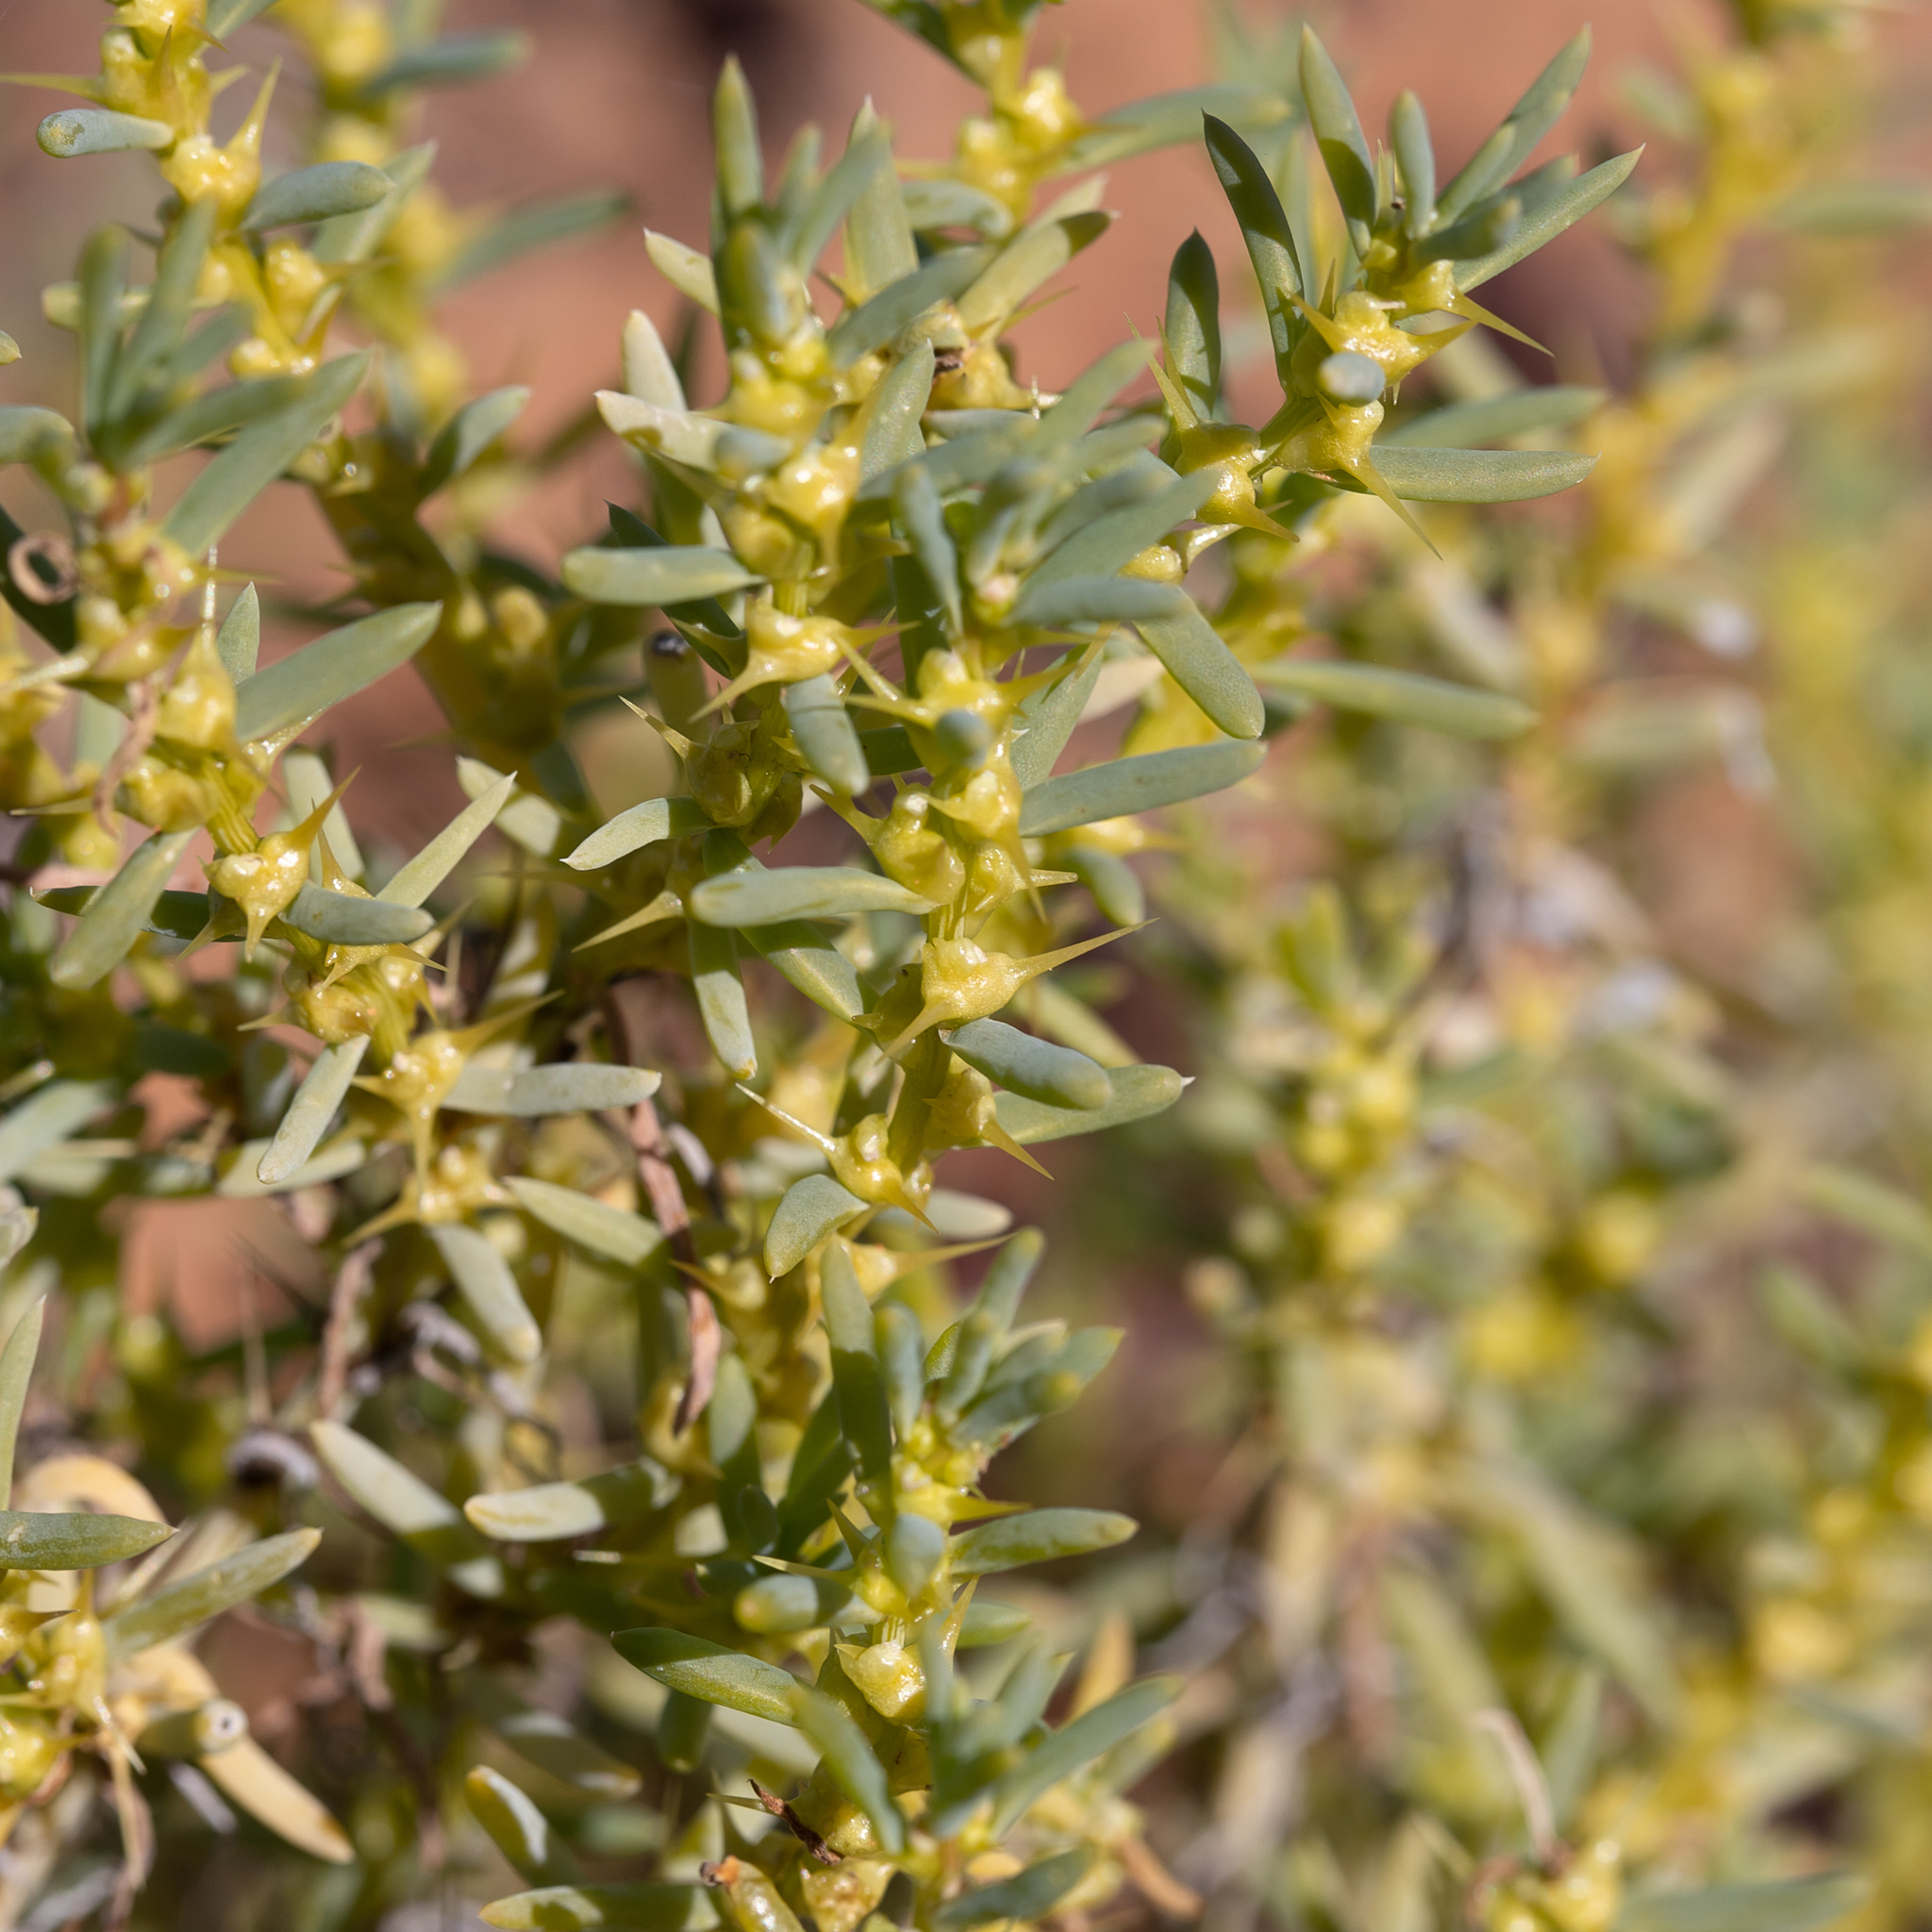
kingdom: Plantae
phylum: Tracheophyta
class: Magnoliopsida
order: Caryophyllales
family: Amaranthaceae
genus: Sclerolaena
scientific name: Sclerolaena glabra
